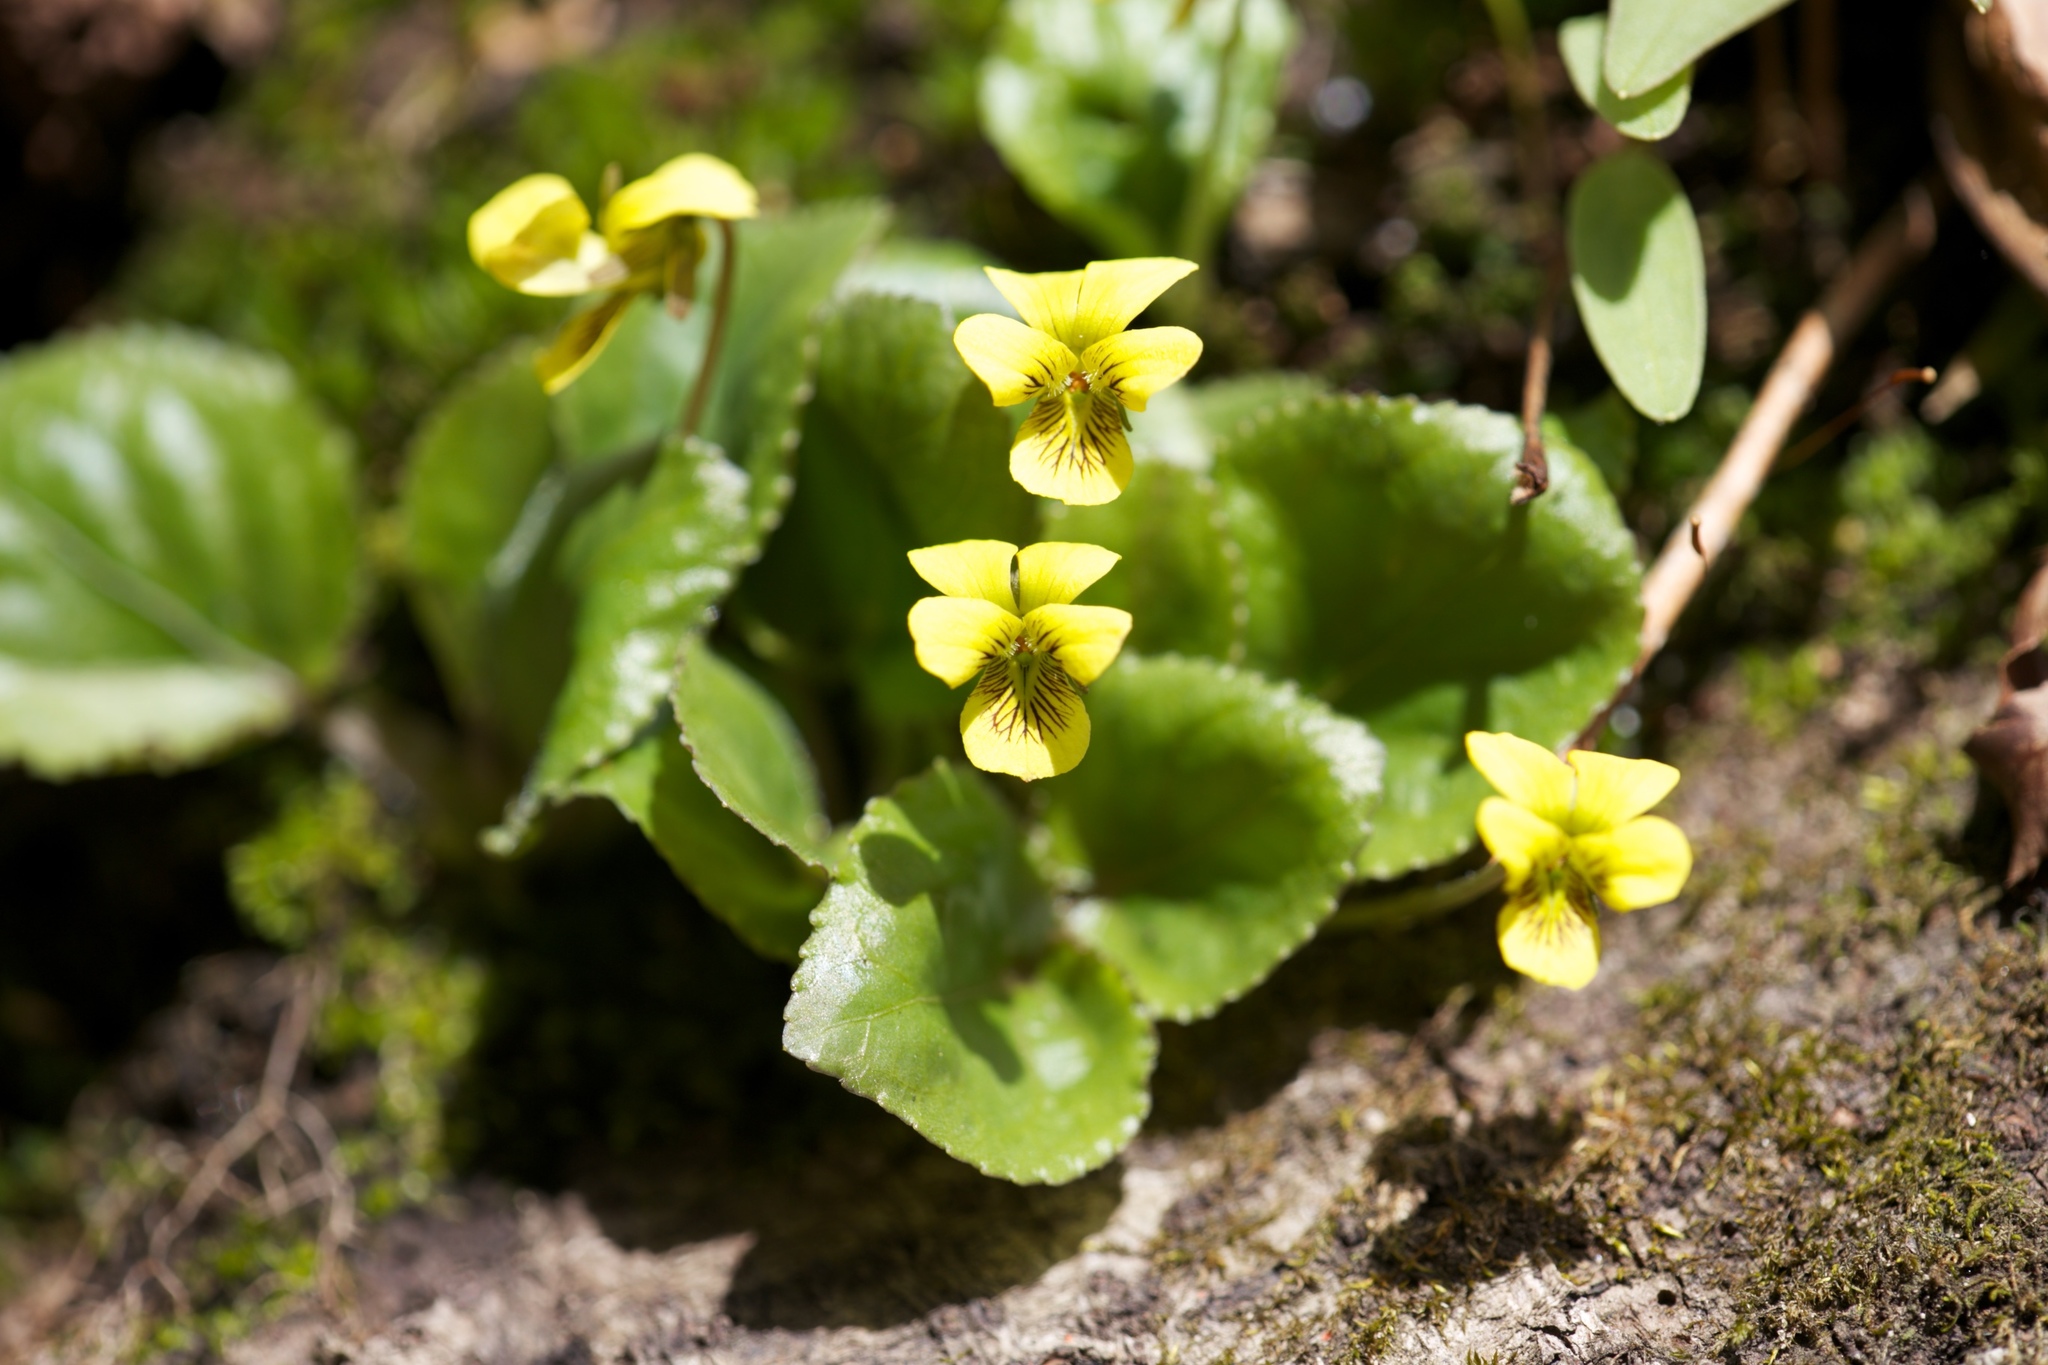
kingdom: Plantae
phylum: Tracheophyta
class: Magnoliopsida
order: Malpighiales
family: Violaceae
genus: Viola
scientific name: Viola rotundifolia
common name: Early yellow violet
